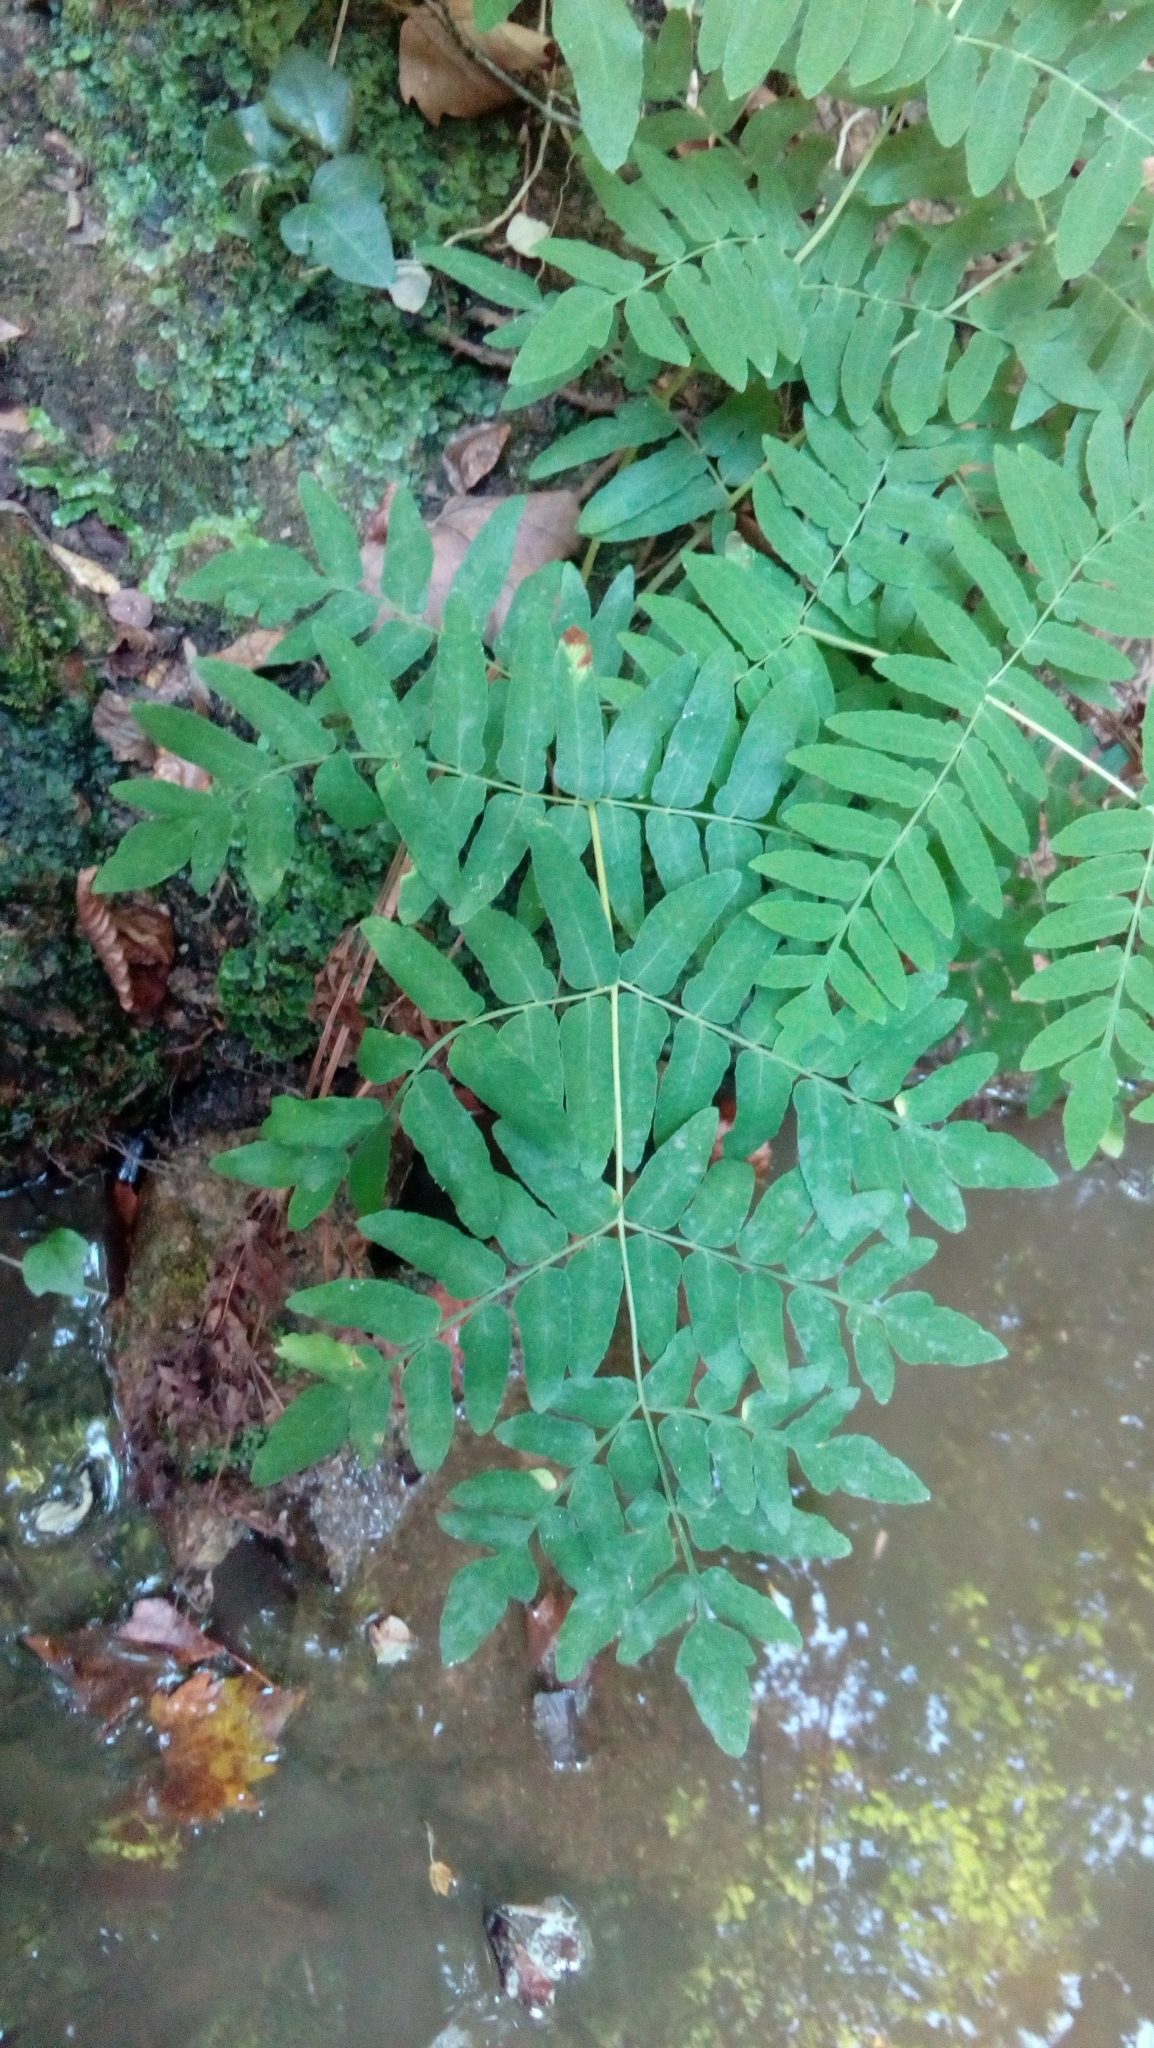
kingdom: Plantae
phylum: Tracheophyta
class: Polypodiopsida
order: Osmundales
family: Osmundaceae
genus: Osmunda
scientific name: Osmunda regalis
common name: Royal fern
